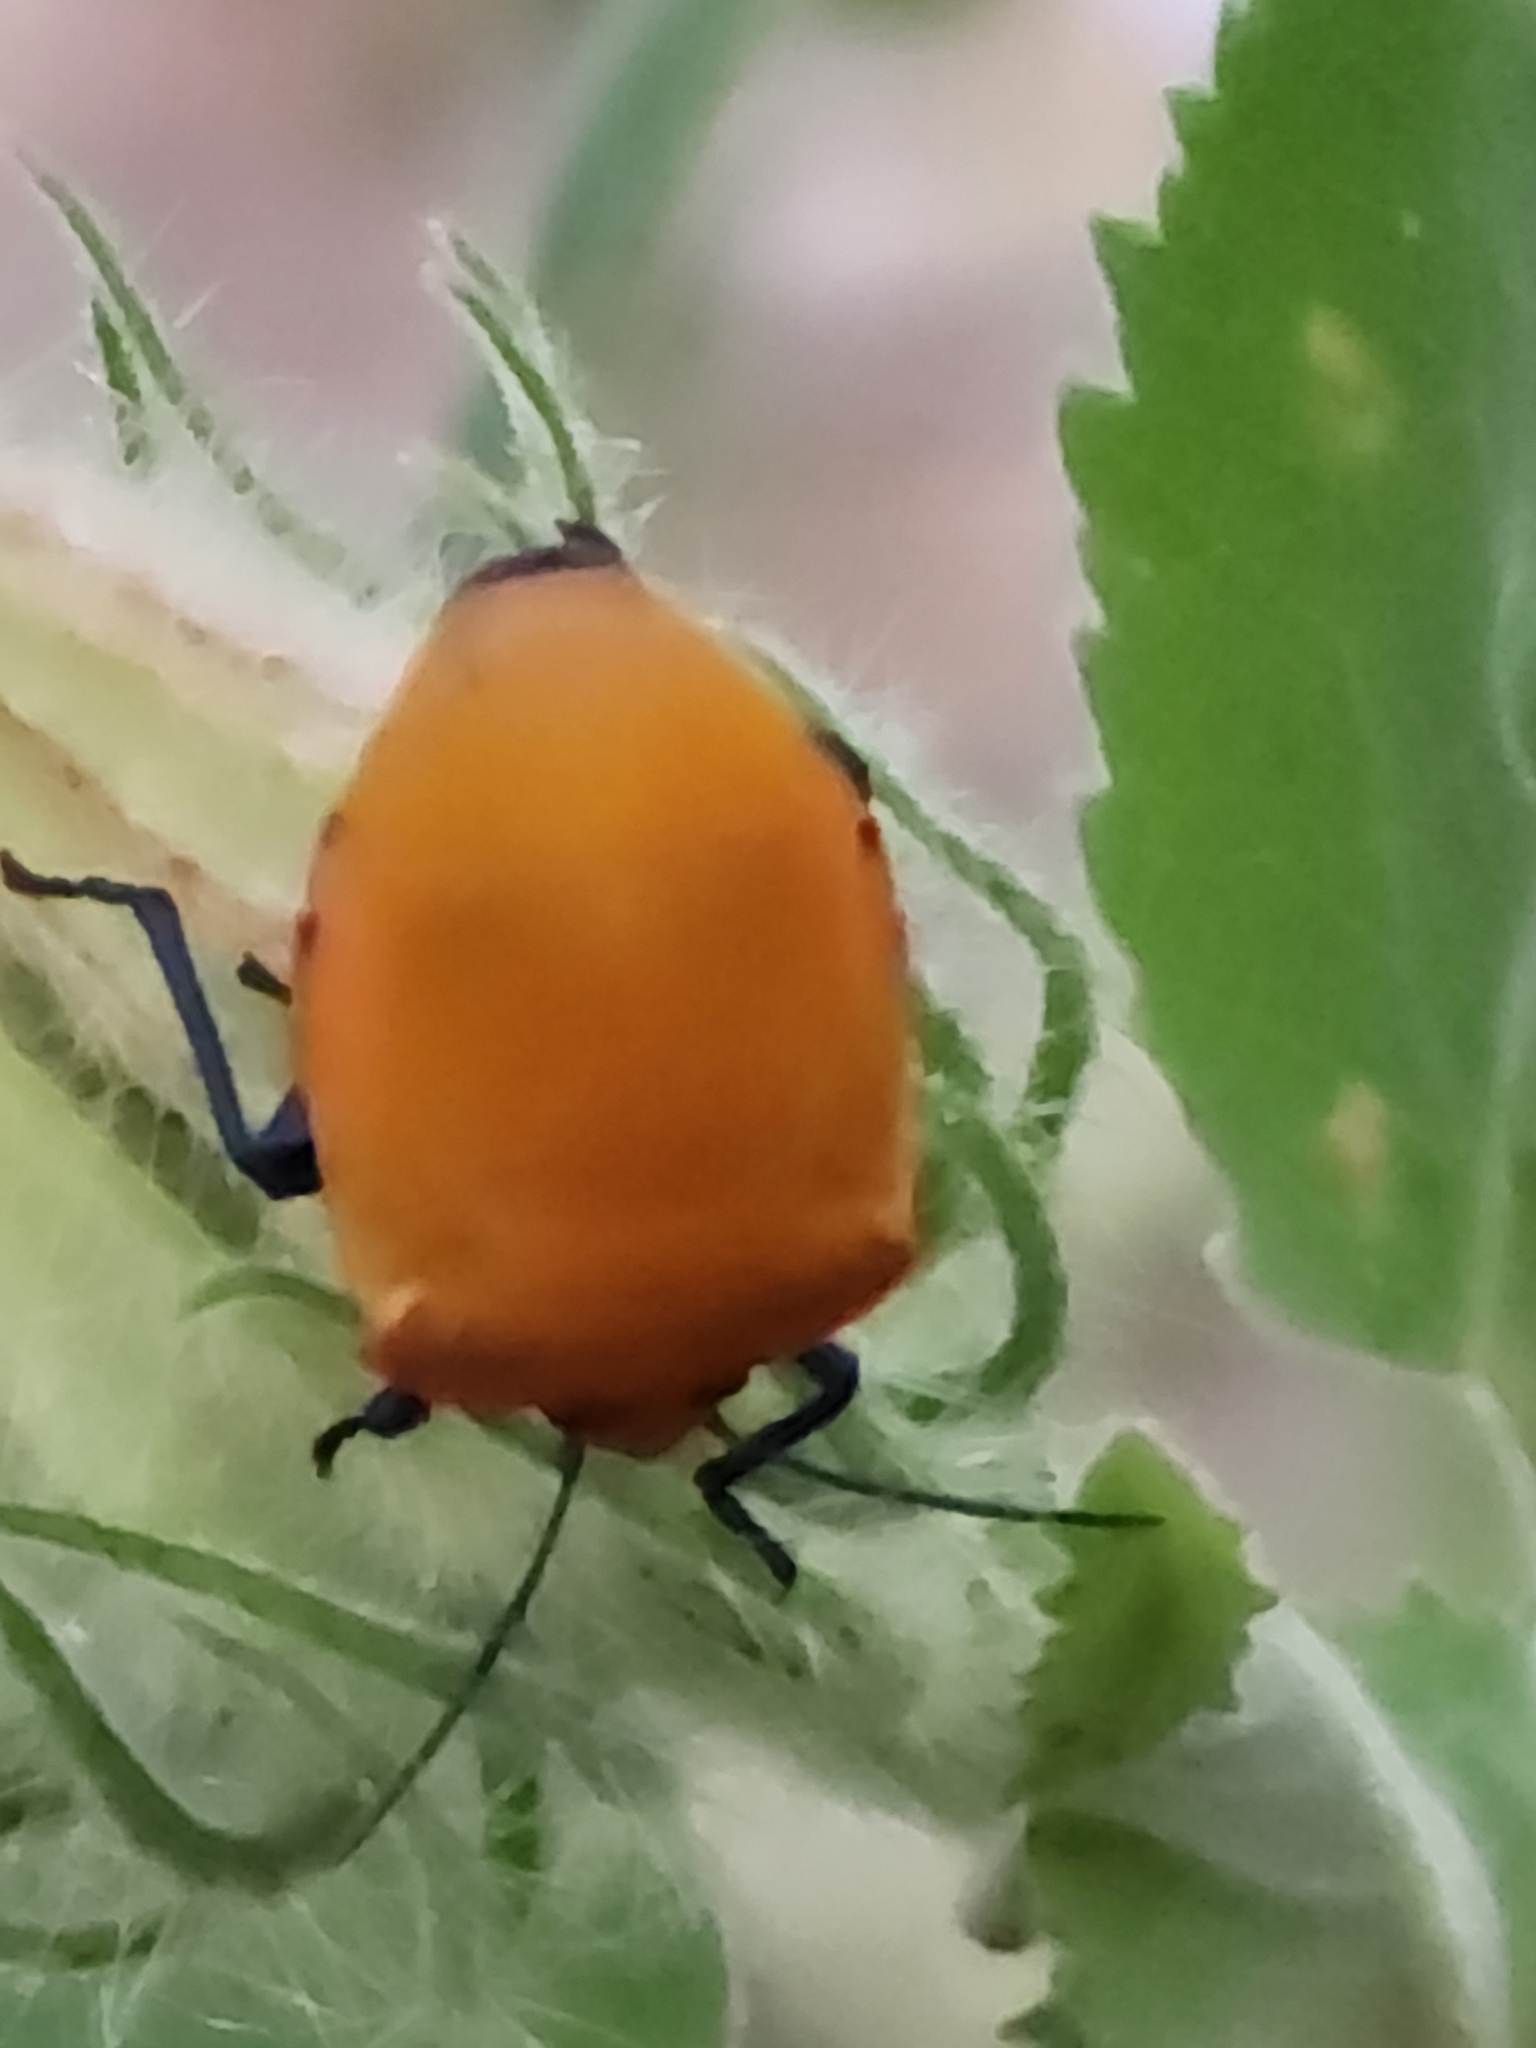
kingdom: Animalia
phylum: Arthropoda
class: Insecta
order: Hemiptera
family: Scutelleridae
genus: Tectocoris
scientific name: Tectocoris diophthalmus
